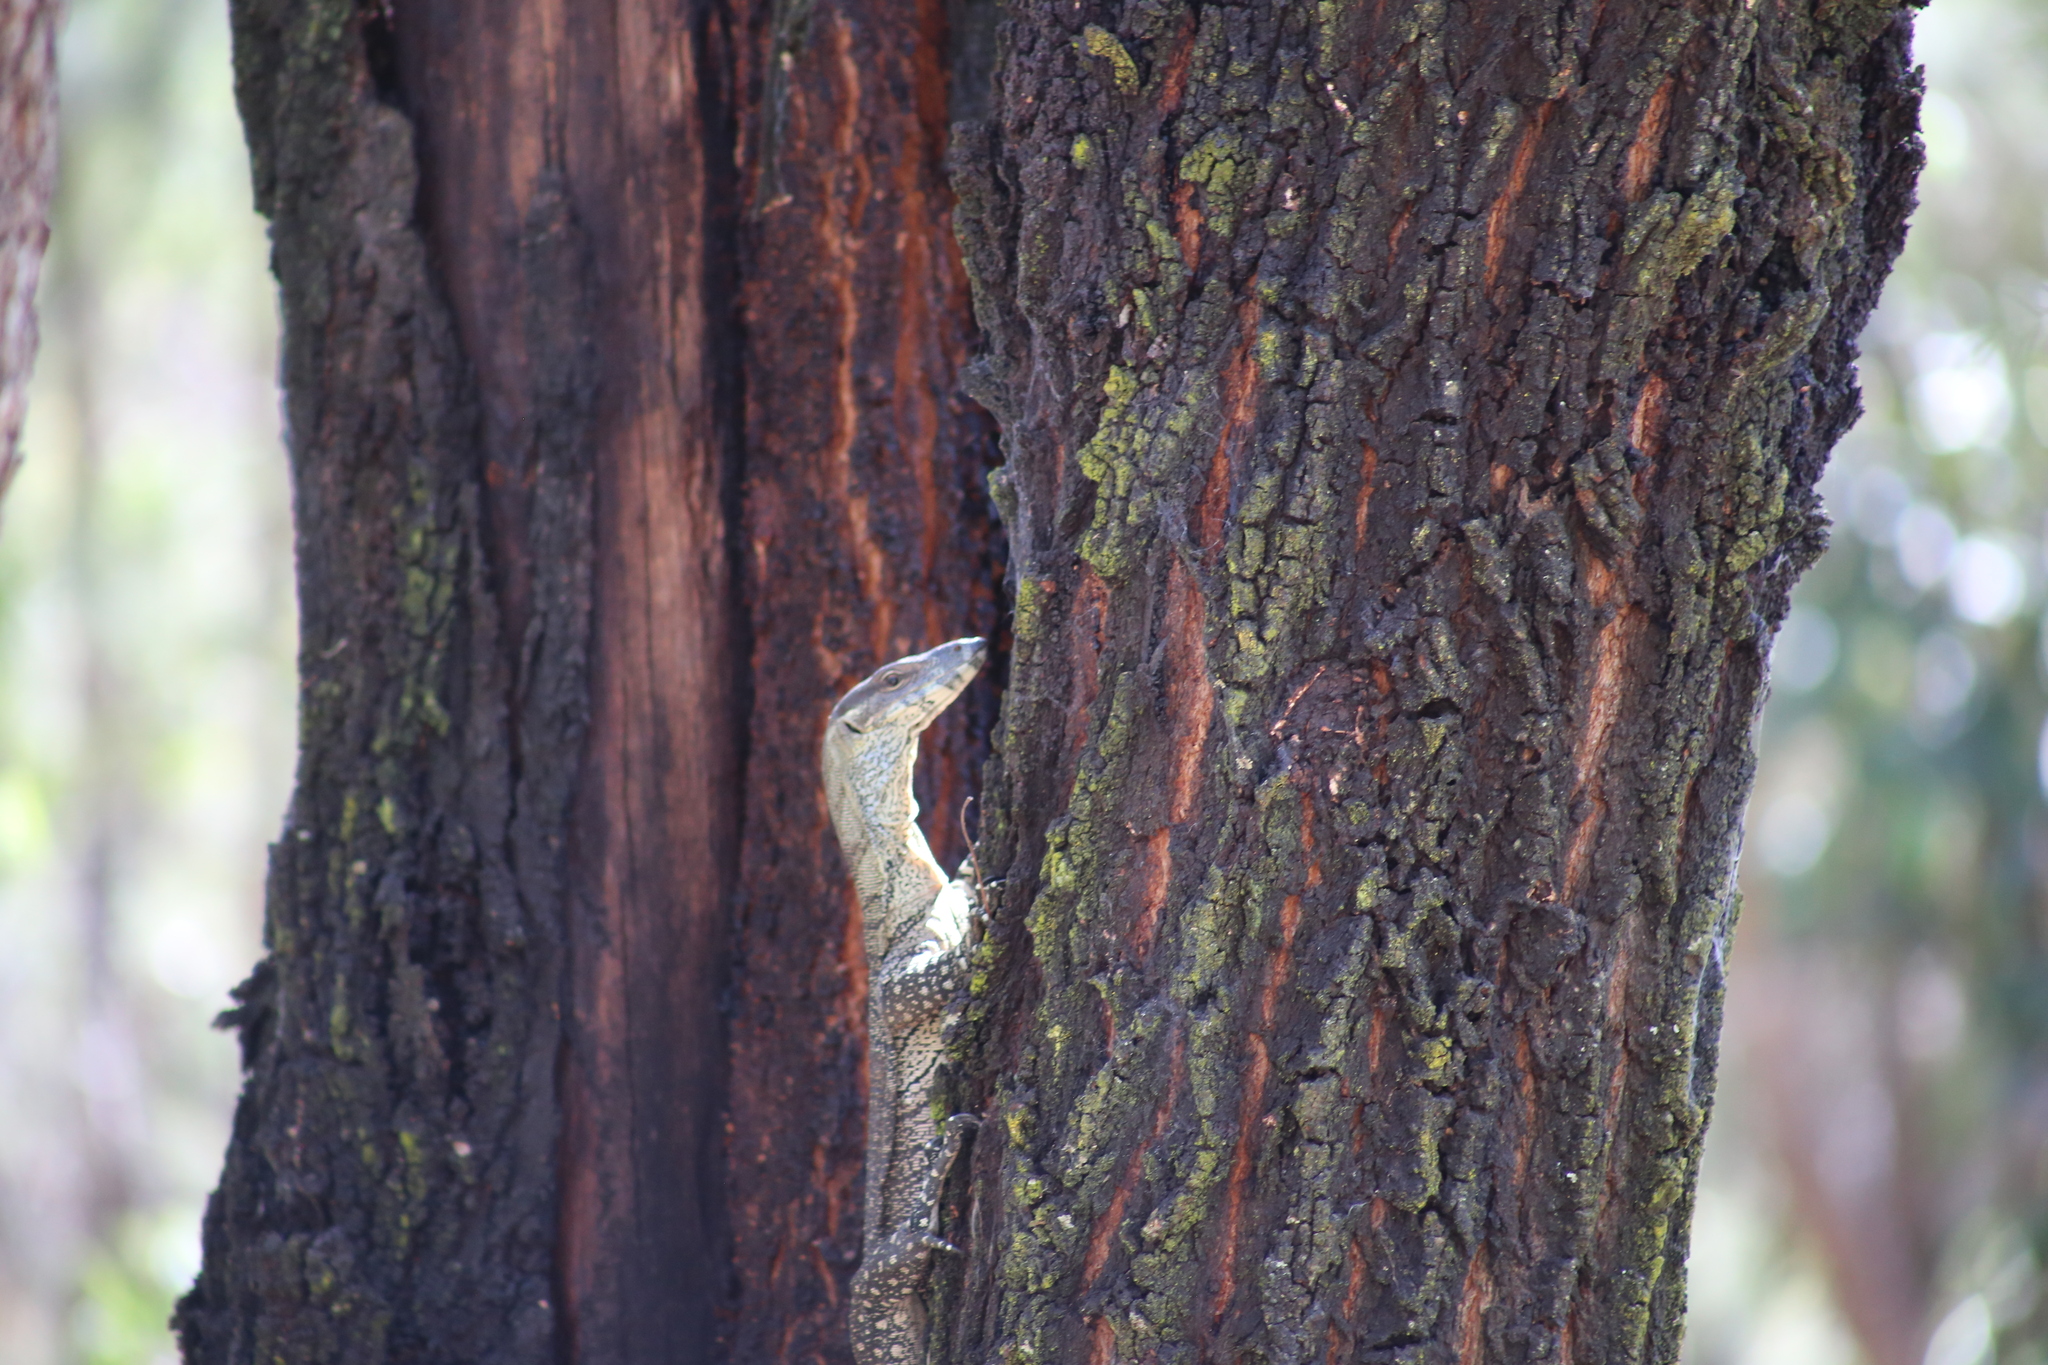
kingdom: Animalia
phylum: Chordata
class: Squamata
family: Varanidae
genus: Varanus
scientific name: Varanus varius
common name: Lace monitor
